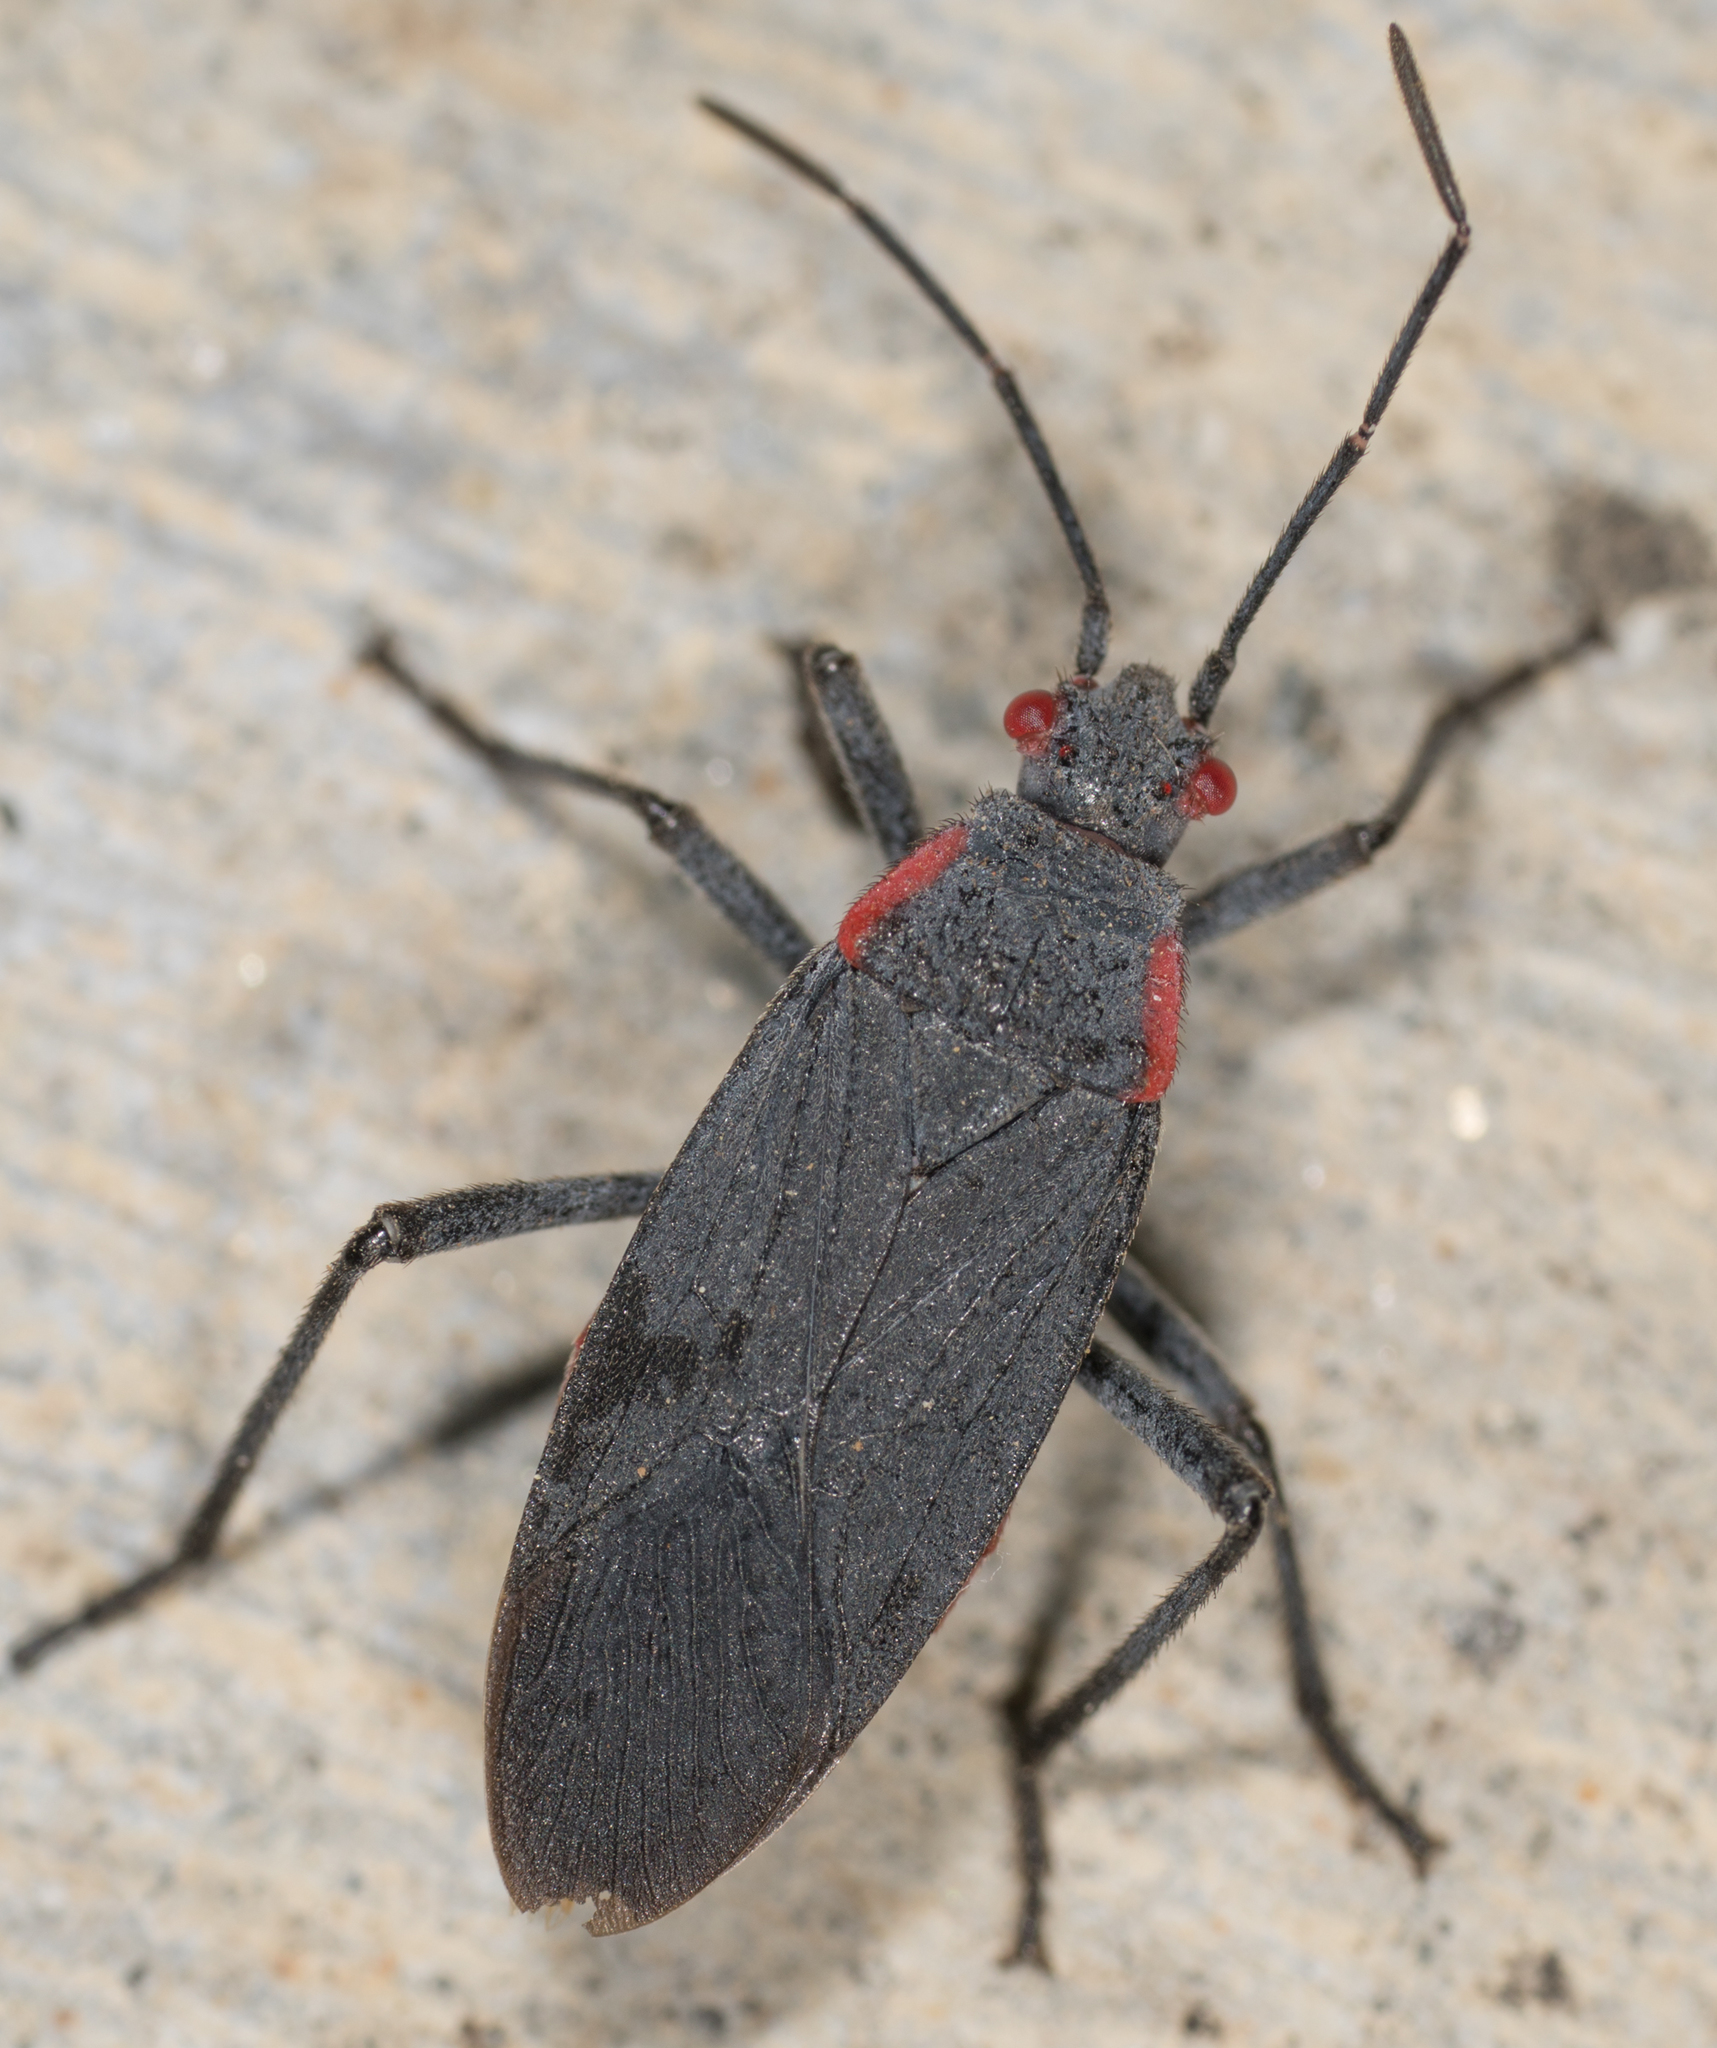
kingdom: Animalia
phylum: Arthropoda
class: Insecta
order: Hemiptera
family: Rhopalidae
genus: Jadera
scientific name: Jadera haematoloma
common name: Red-shouldered bug
